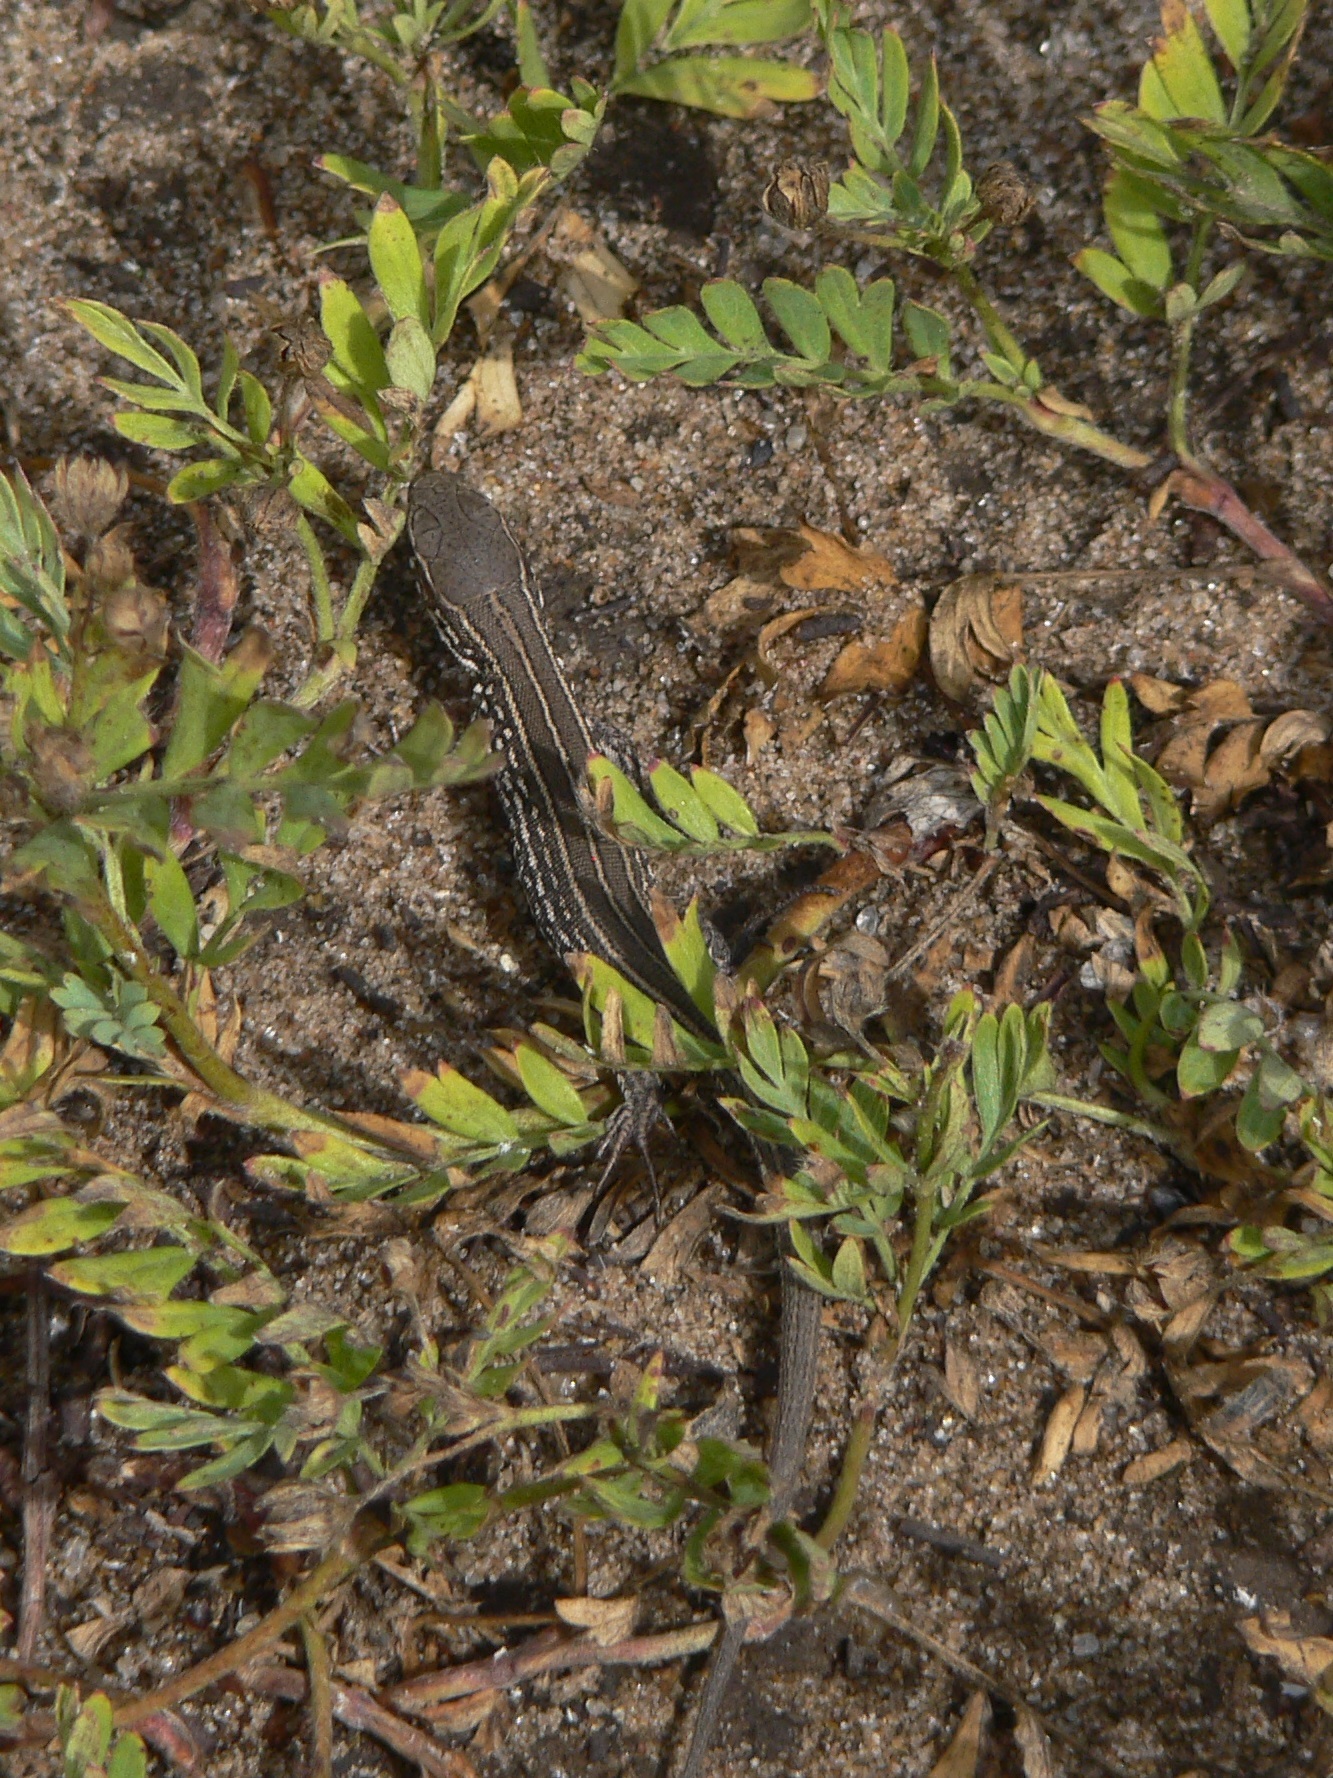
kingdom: Animalia
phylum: Chordata
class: Squamata
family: Lacertidae
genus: Lacerta
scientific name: Lacerta agilis
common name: Sand lizard
